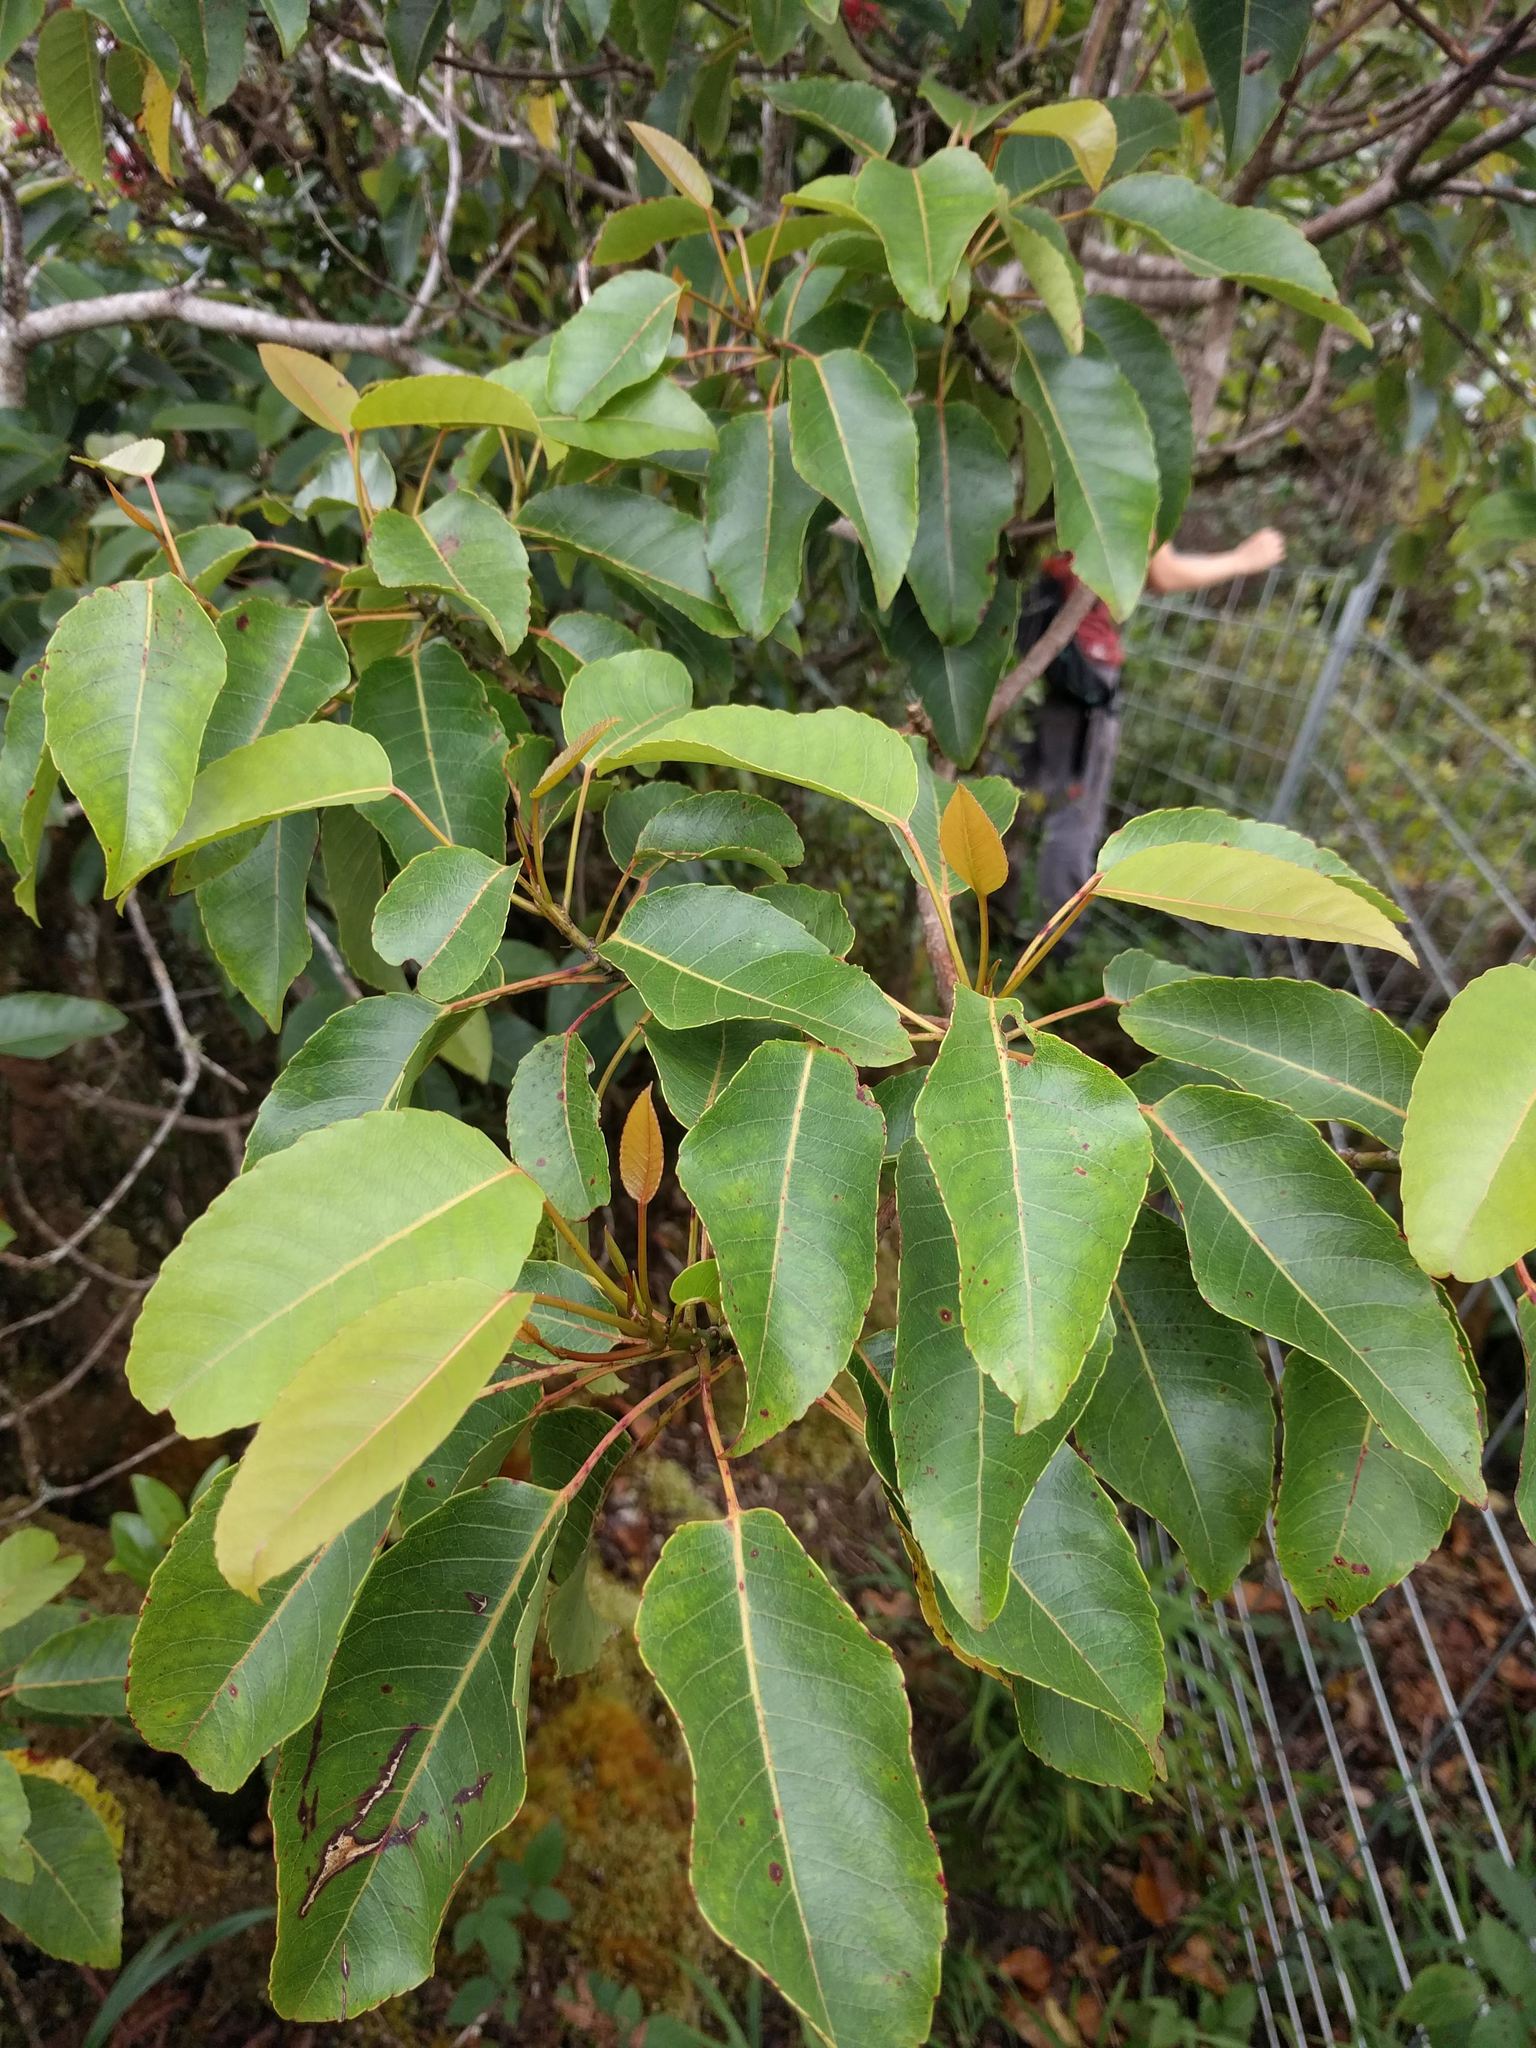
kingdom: Plantae
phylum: Tracheophyta
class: Magnoliopsida
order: Oxalidales
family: Elaeocarpaceae
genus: Elaeocarpus
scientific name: Elaeocarpus bifidus
